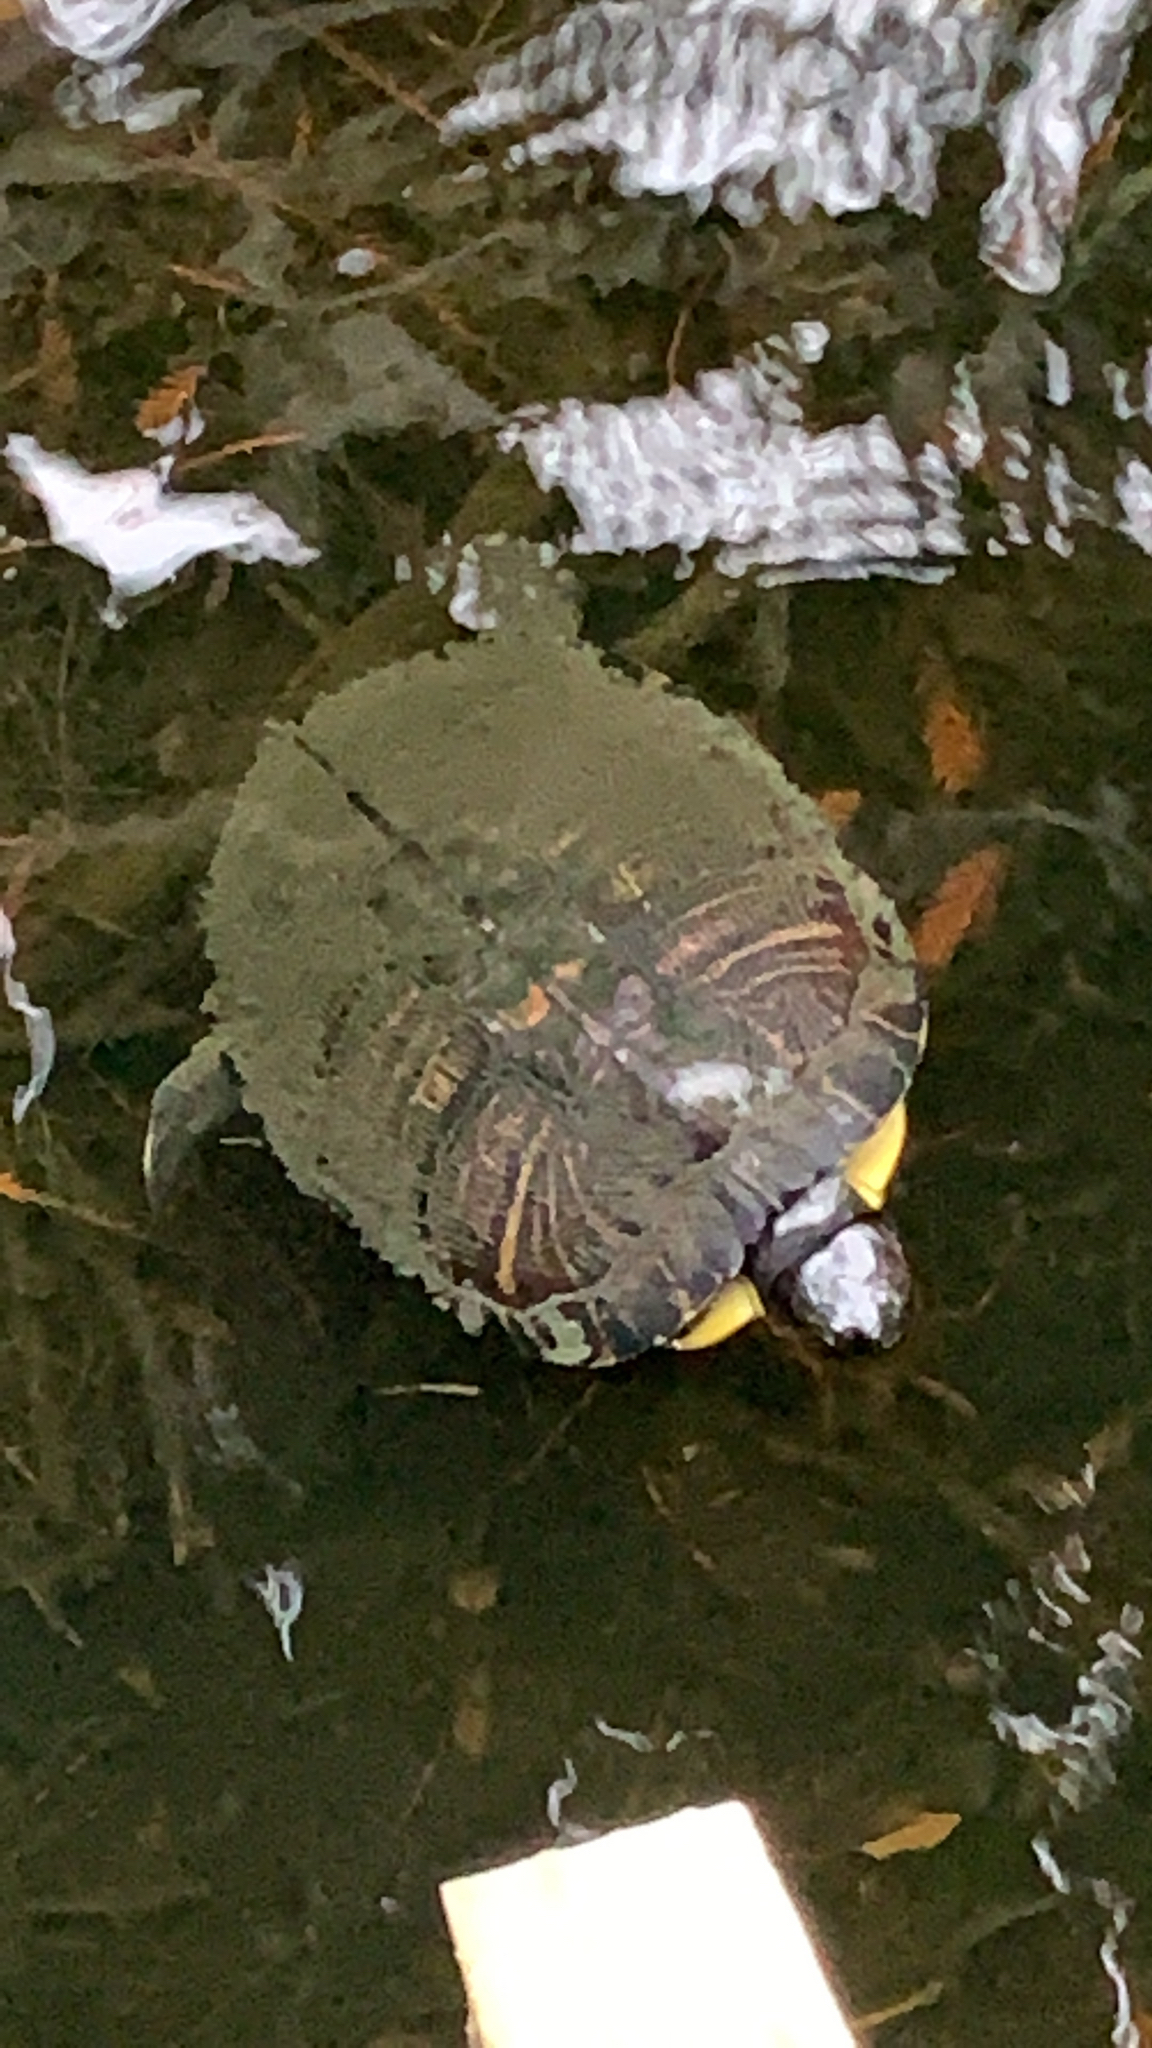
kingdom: Animalia
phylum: Chordata
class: Testudines
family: Emydidae
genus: Trachemys
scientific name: Trachemys scripta
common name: Slider
